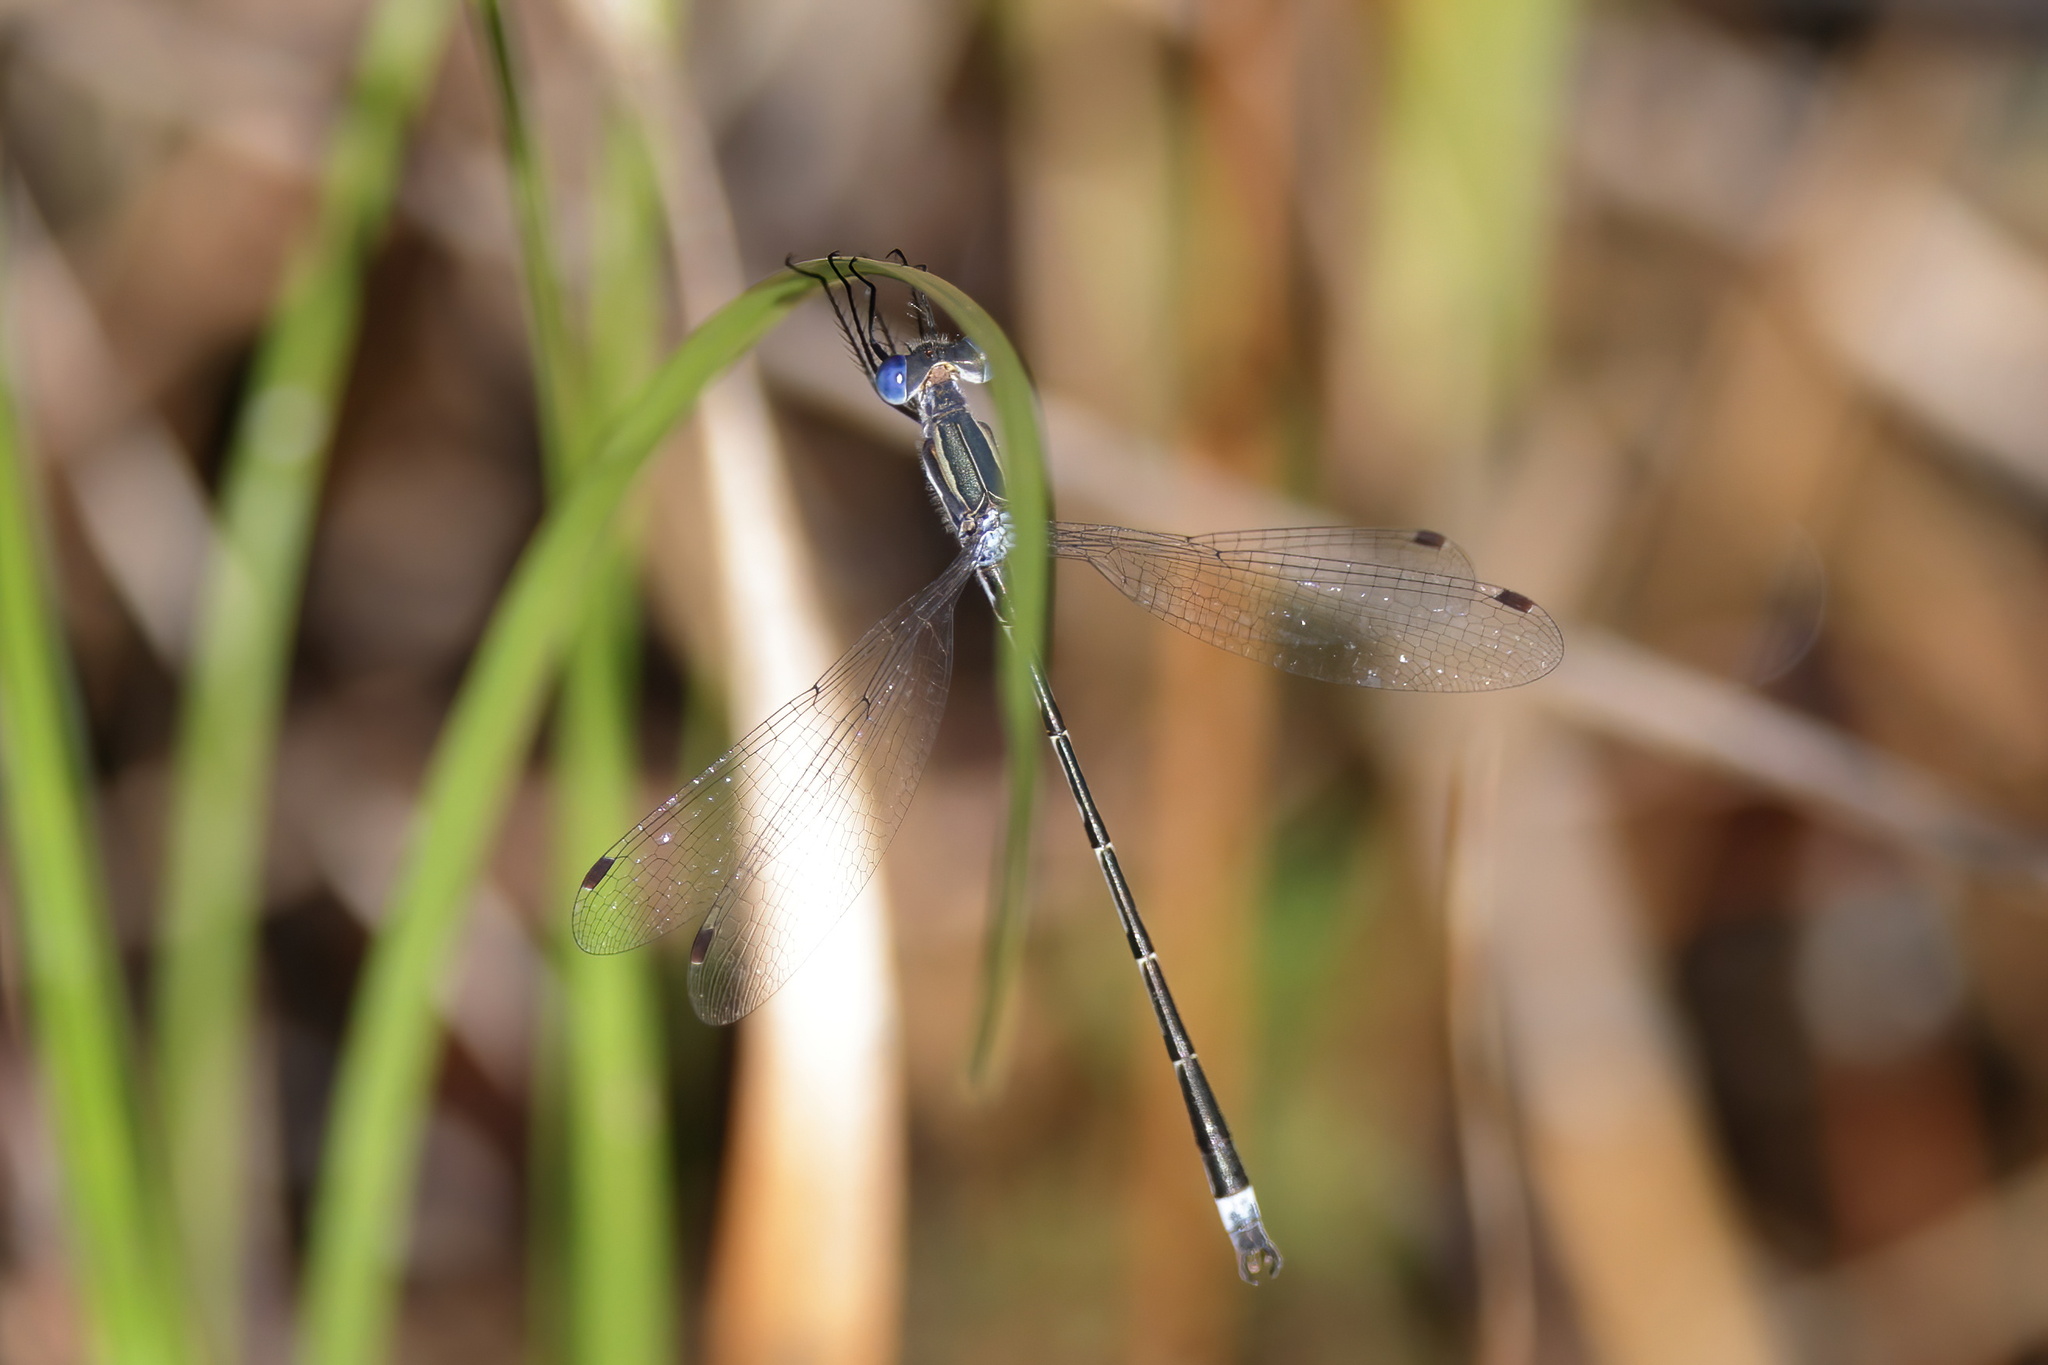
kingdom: Animalia
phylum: Arthropoda
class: Insecta
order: Odonata
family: Lestidae
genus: Lestes
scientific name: Lestes australis
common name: Southern spreadwing
